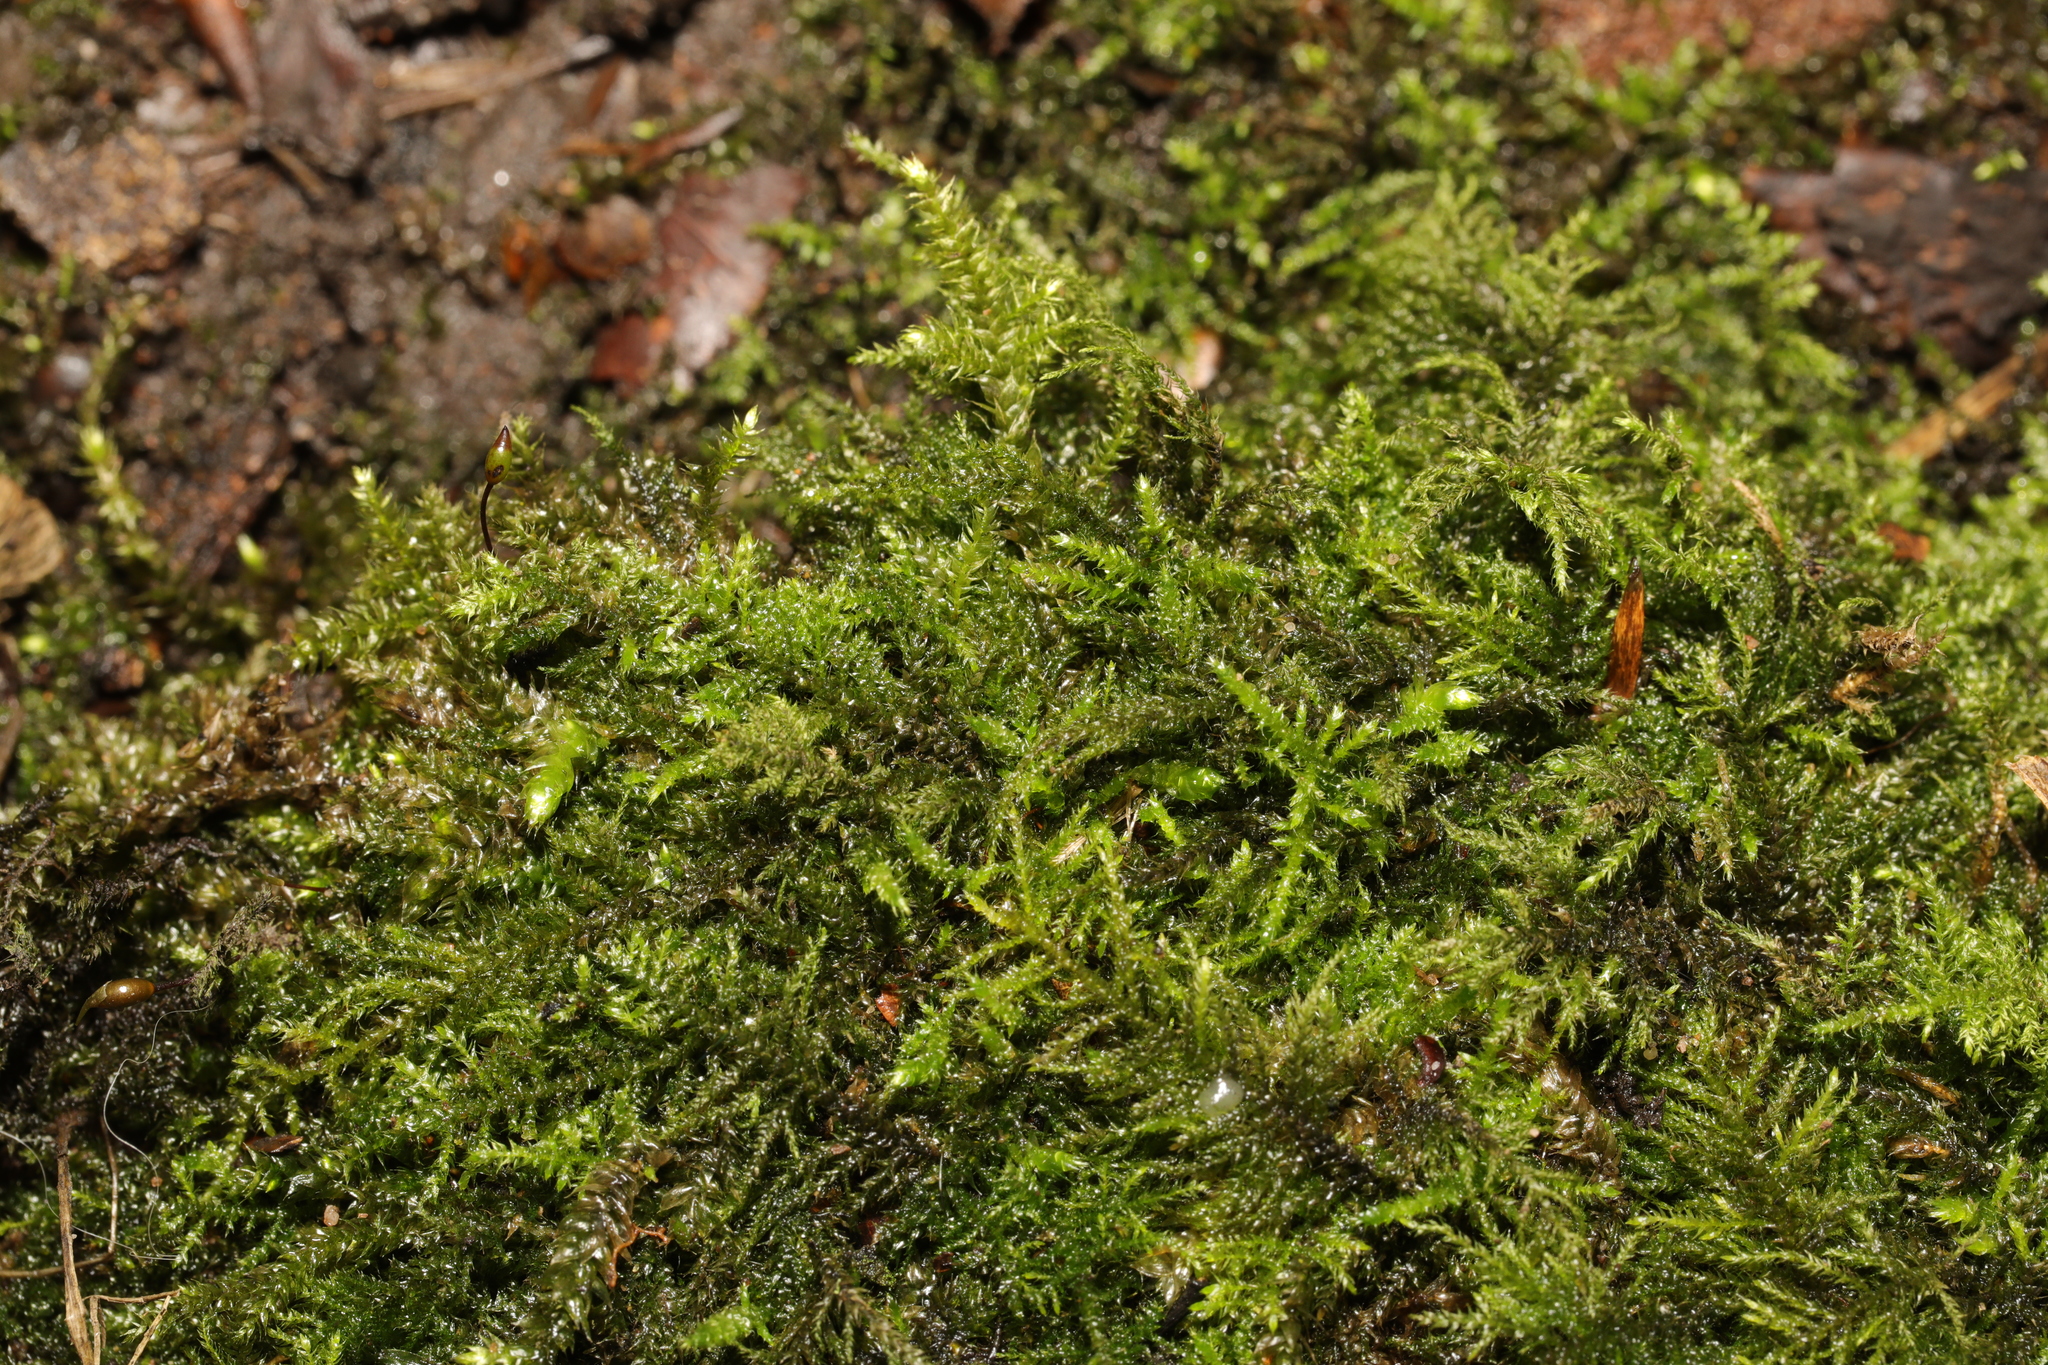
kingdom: Plantae
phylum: Bryophyta
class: Bryopsida
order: Hypnales
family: Brachytheciaceae
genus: Kindbergia
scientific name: Kindbergia praelonga
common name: Slender beaked moss
